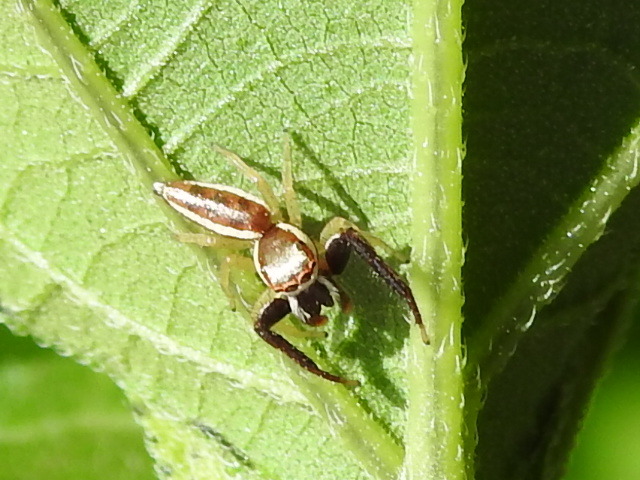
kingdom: Animalia
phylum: Arthropoda
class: Arachnida
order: Araneae
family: Salticidae
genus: Hentzia
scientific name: Hentzia palmarum
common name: Common hentz jumping spider
